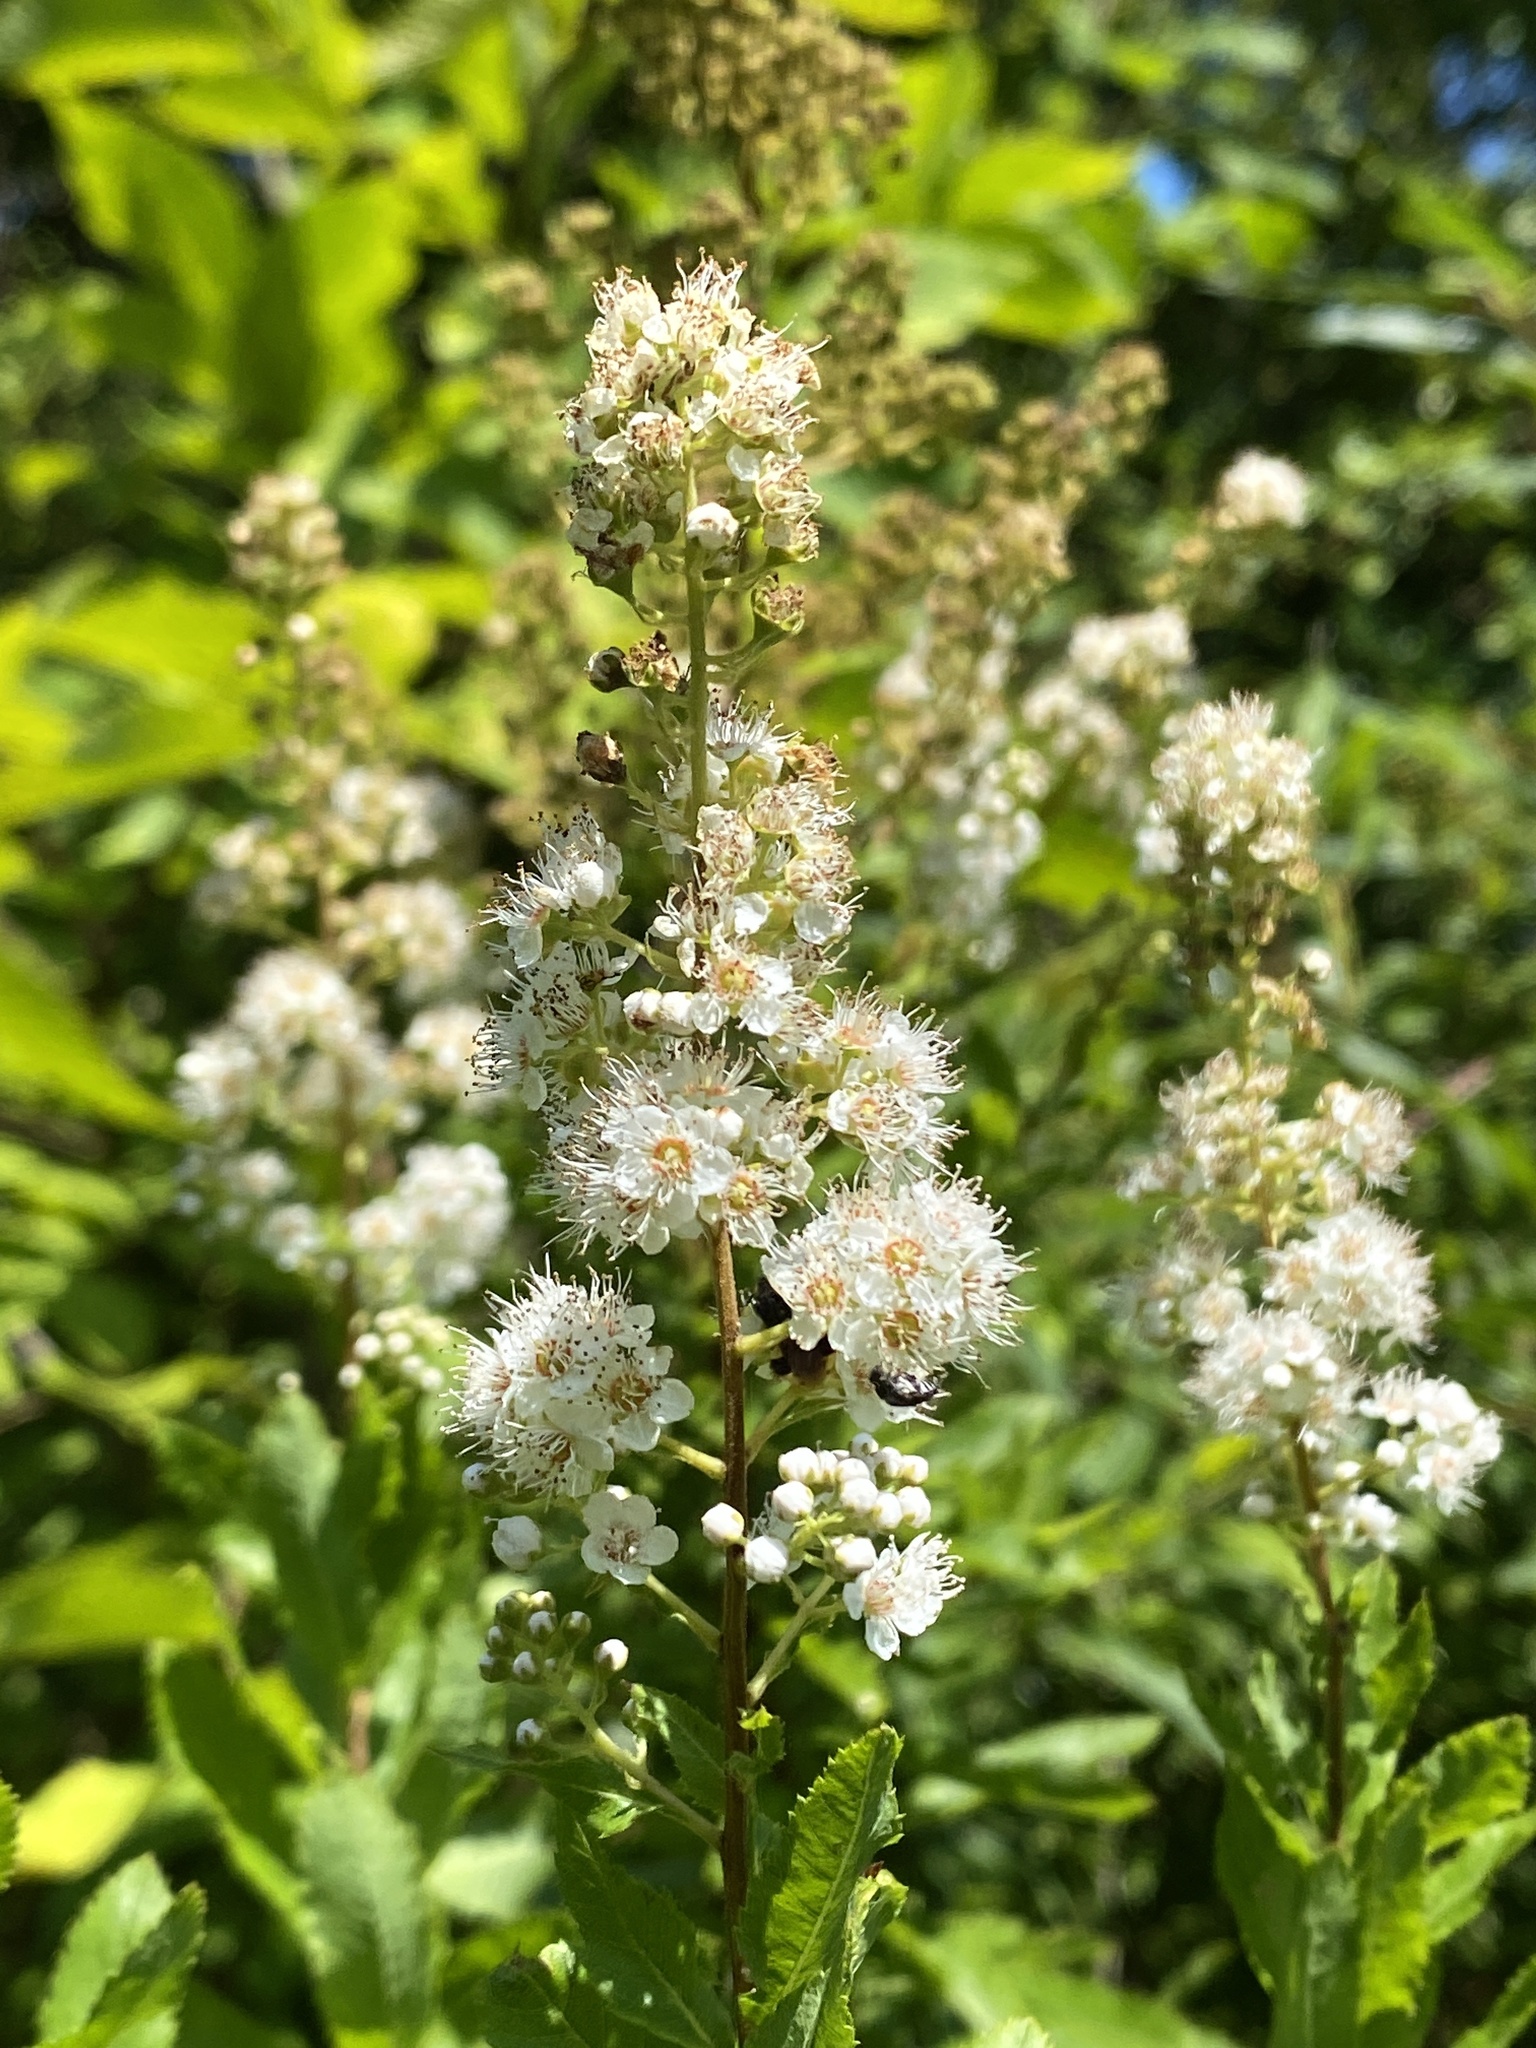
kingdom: Plantae
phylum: Tracheophyta
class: Magnoliopsida
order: Rosales
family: Rosaceae
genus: Spiraea
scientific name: Spiraea alba
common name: Pale bridewort
